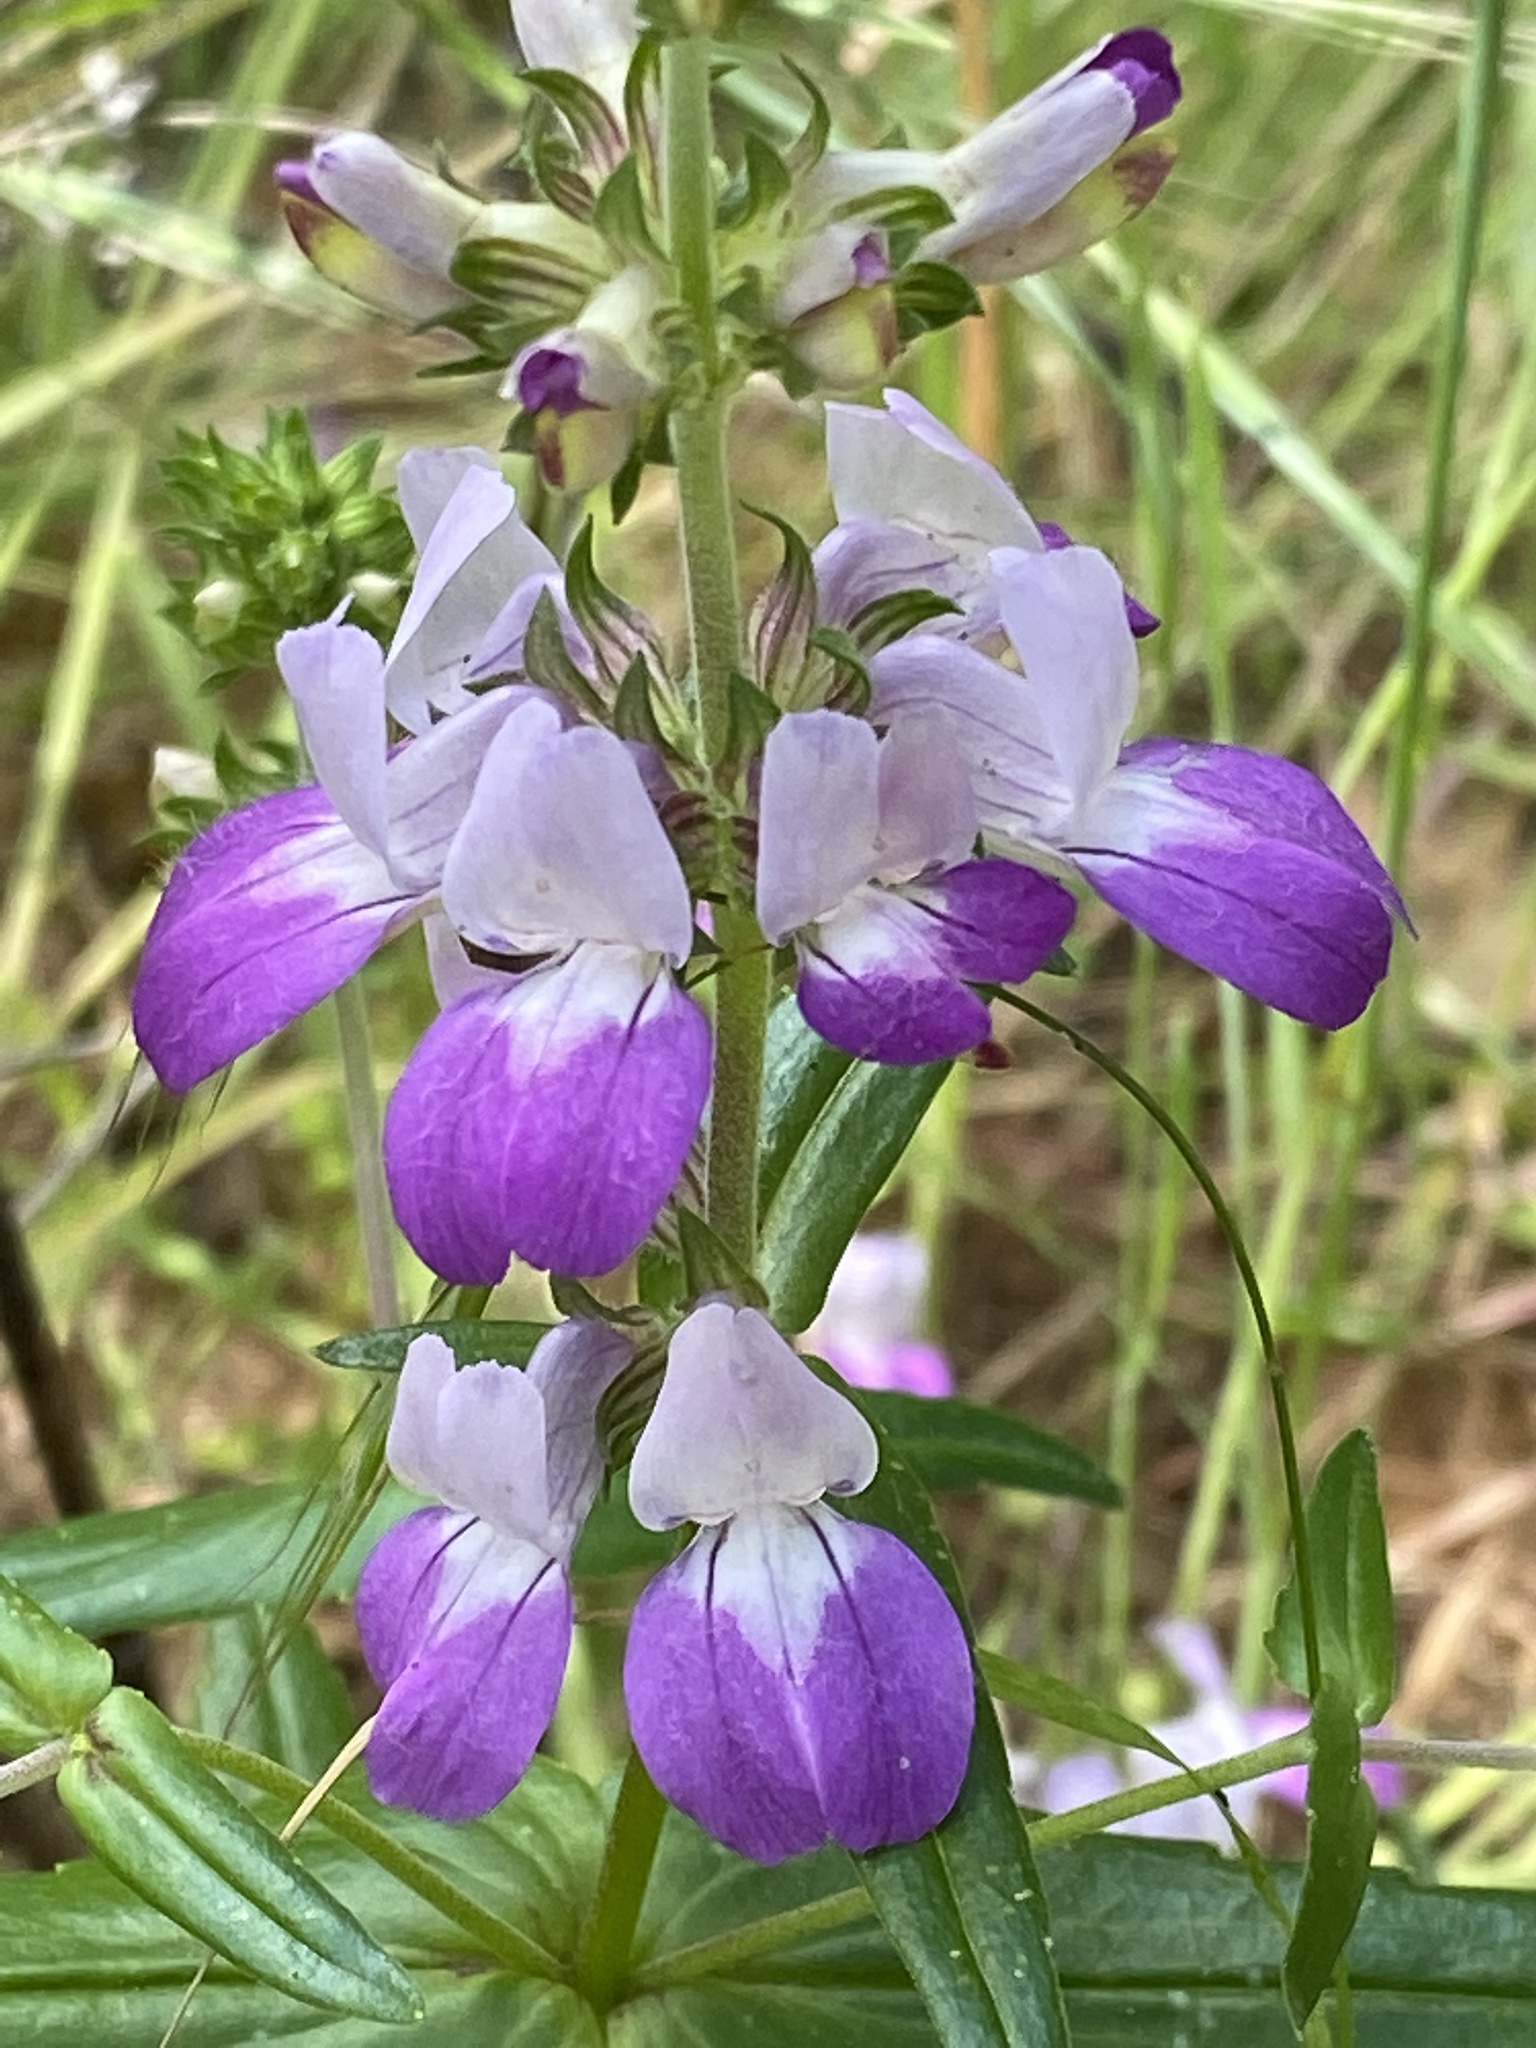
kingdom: Plantae
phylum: Tracheophyta
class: Magnoliopsida
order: Lamiales
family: Plantaginaceae
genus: Collinsia
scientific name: Collinsia heterophylla
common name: Chinese-houses
